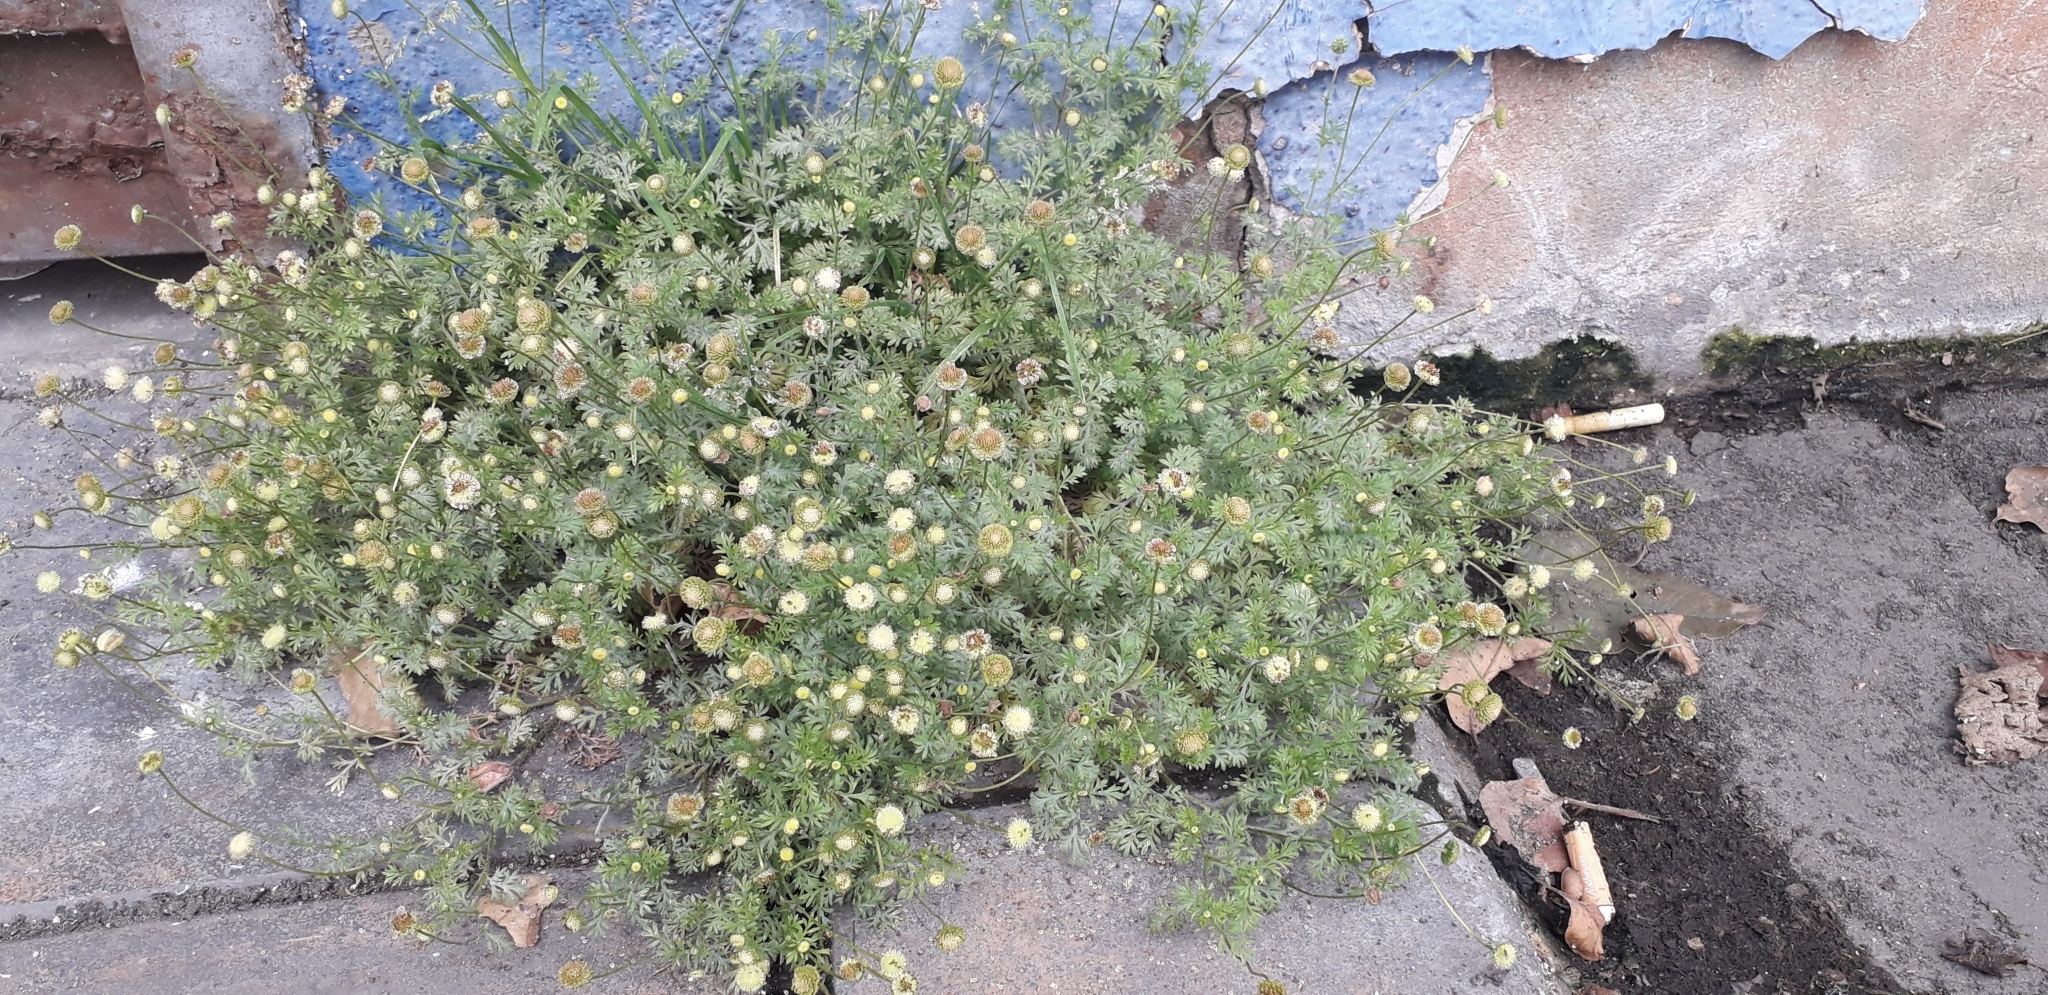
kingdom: Plantae
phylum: Tracheophyta
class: Magnoliopsida
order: Asterales
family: Asteraceae
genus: Cotula
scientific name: Cotula australis
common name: Australian waterbuttons
